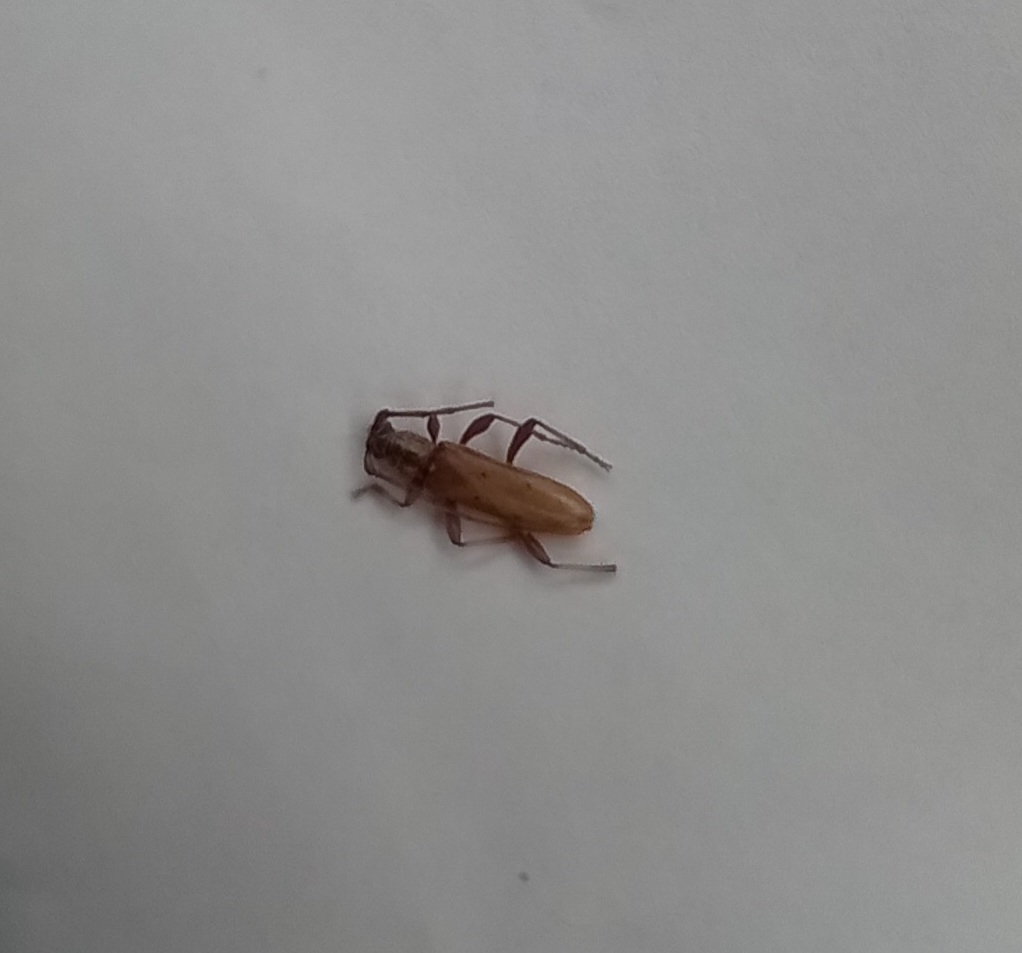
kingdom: Animalia
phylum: Arthropoda
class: Insecta
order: Coleoptera
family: Cerambycidae
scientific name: Cerambycidae
